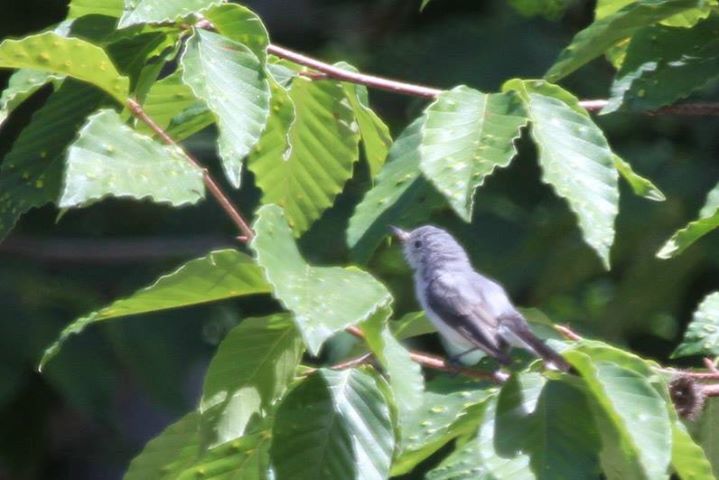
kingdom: Animalia
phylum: Chordata
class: Aves
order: Passeriformes
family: Polioptilidae
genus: Polioptila
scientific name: Polioptila caerulea
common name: Blue-gray gnatcatcher
